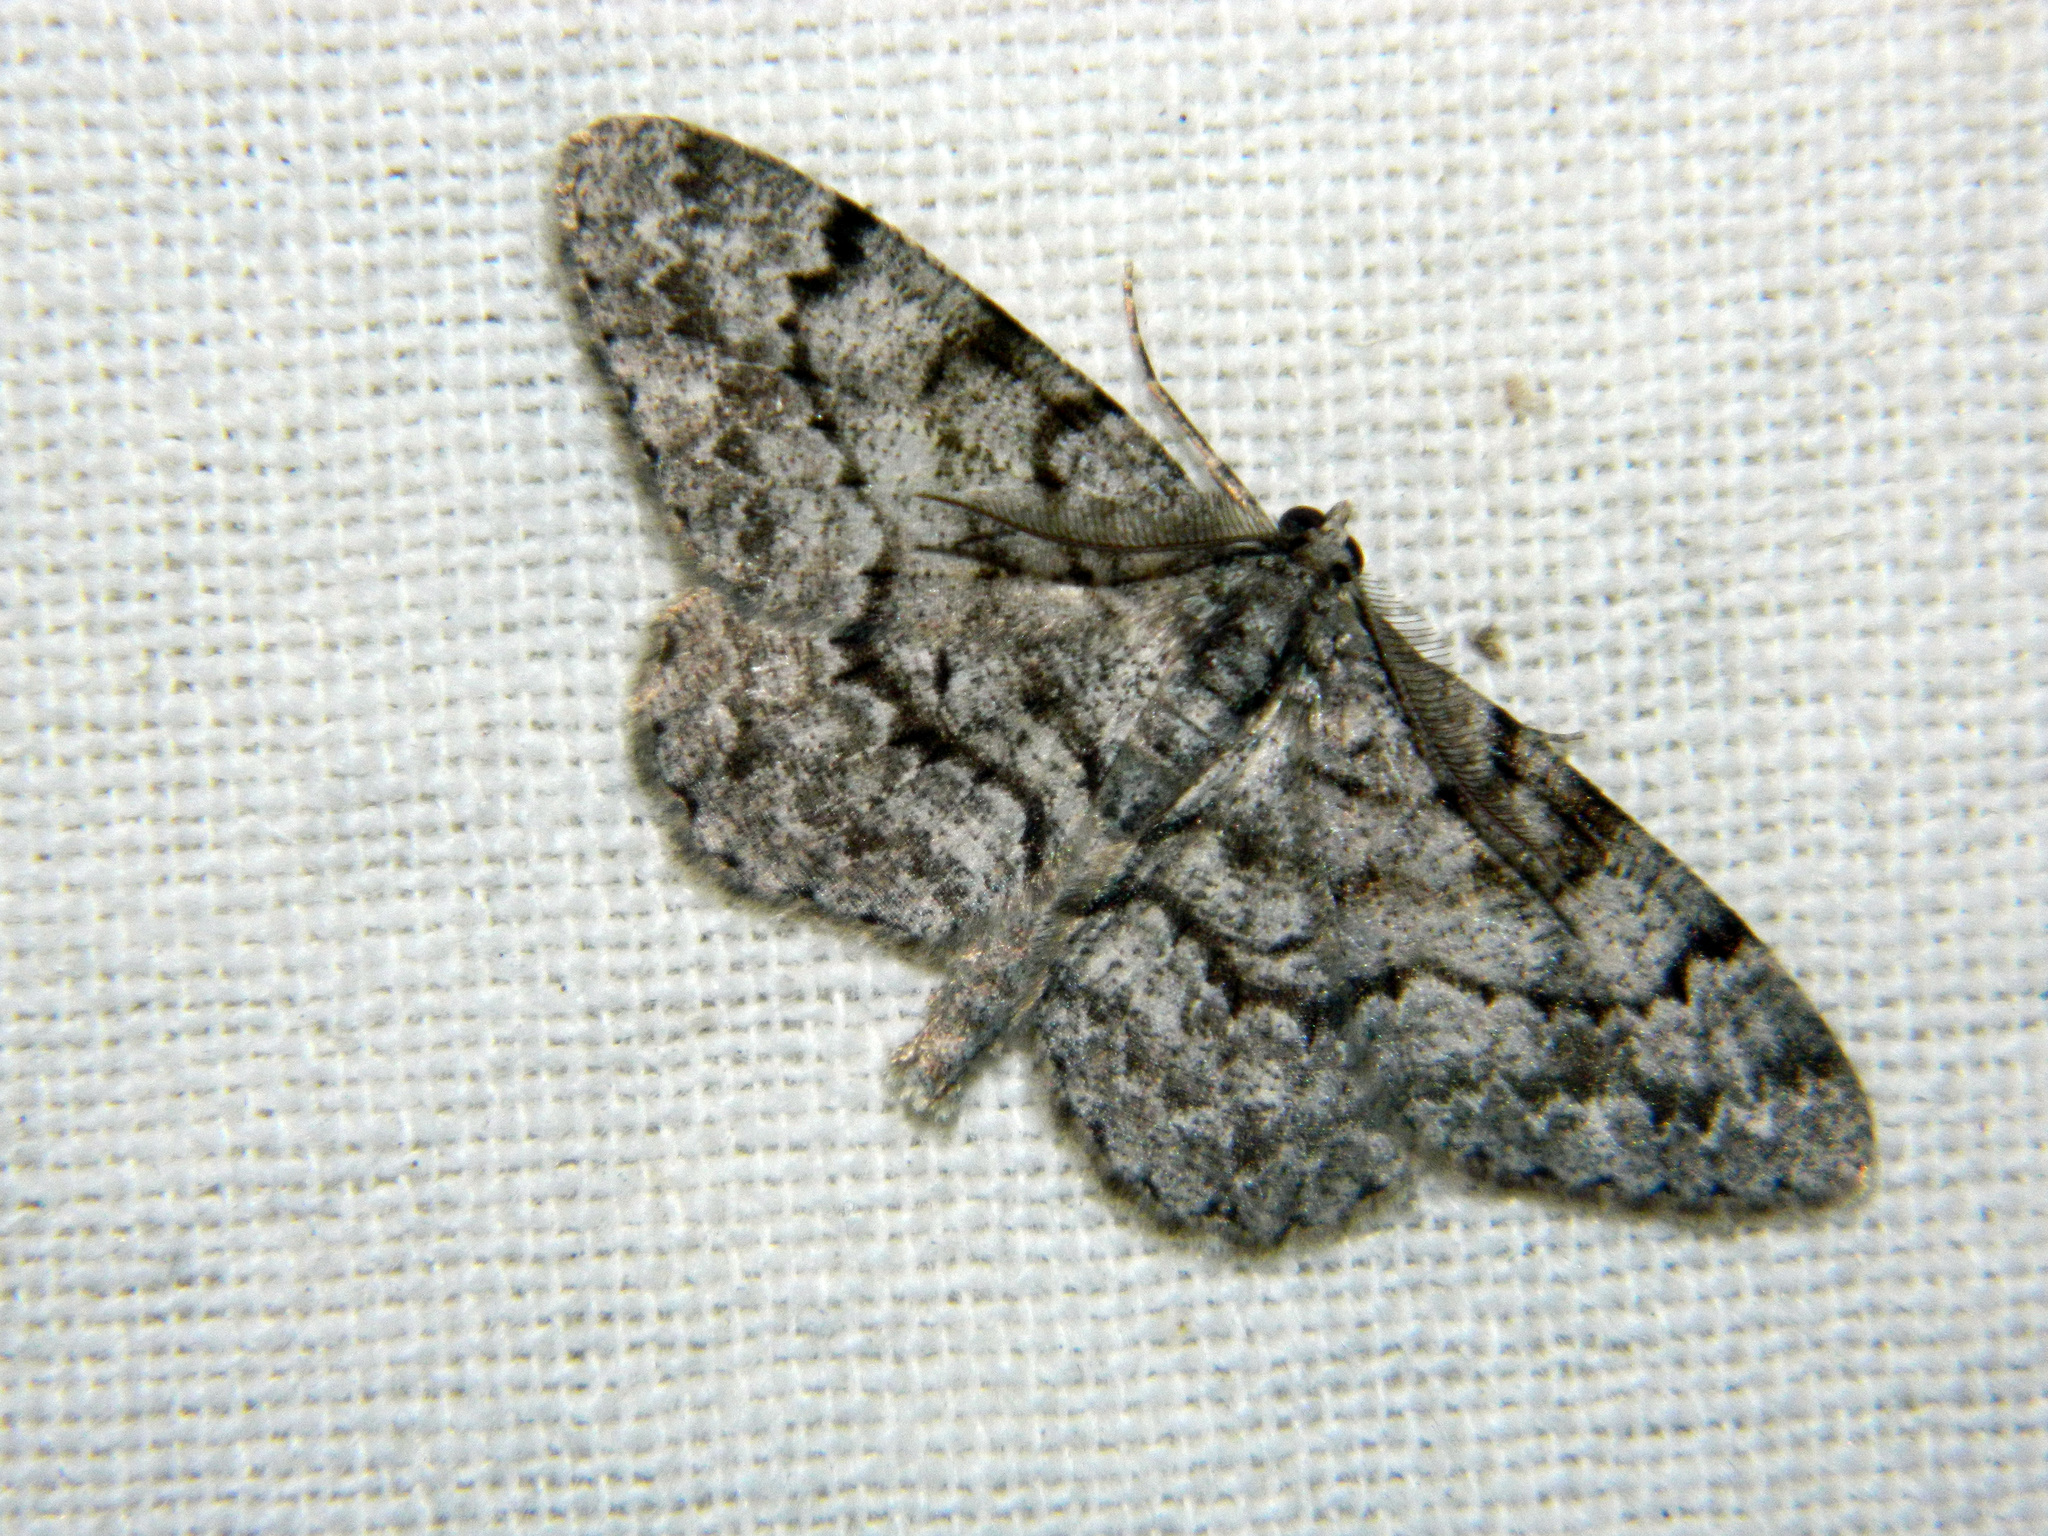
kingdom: Animalia
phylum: Arthropoda
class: Insecta
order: Lepidoptera
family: Geometridae
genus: Protoboarmia
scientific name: Protoboarmia porcelaria
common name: Porcelain gray
